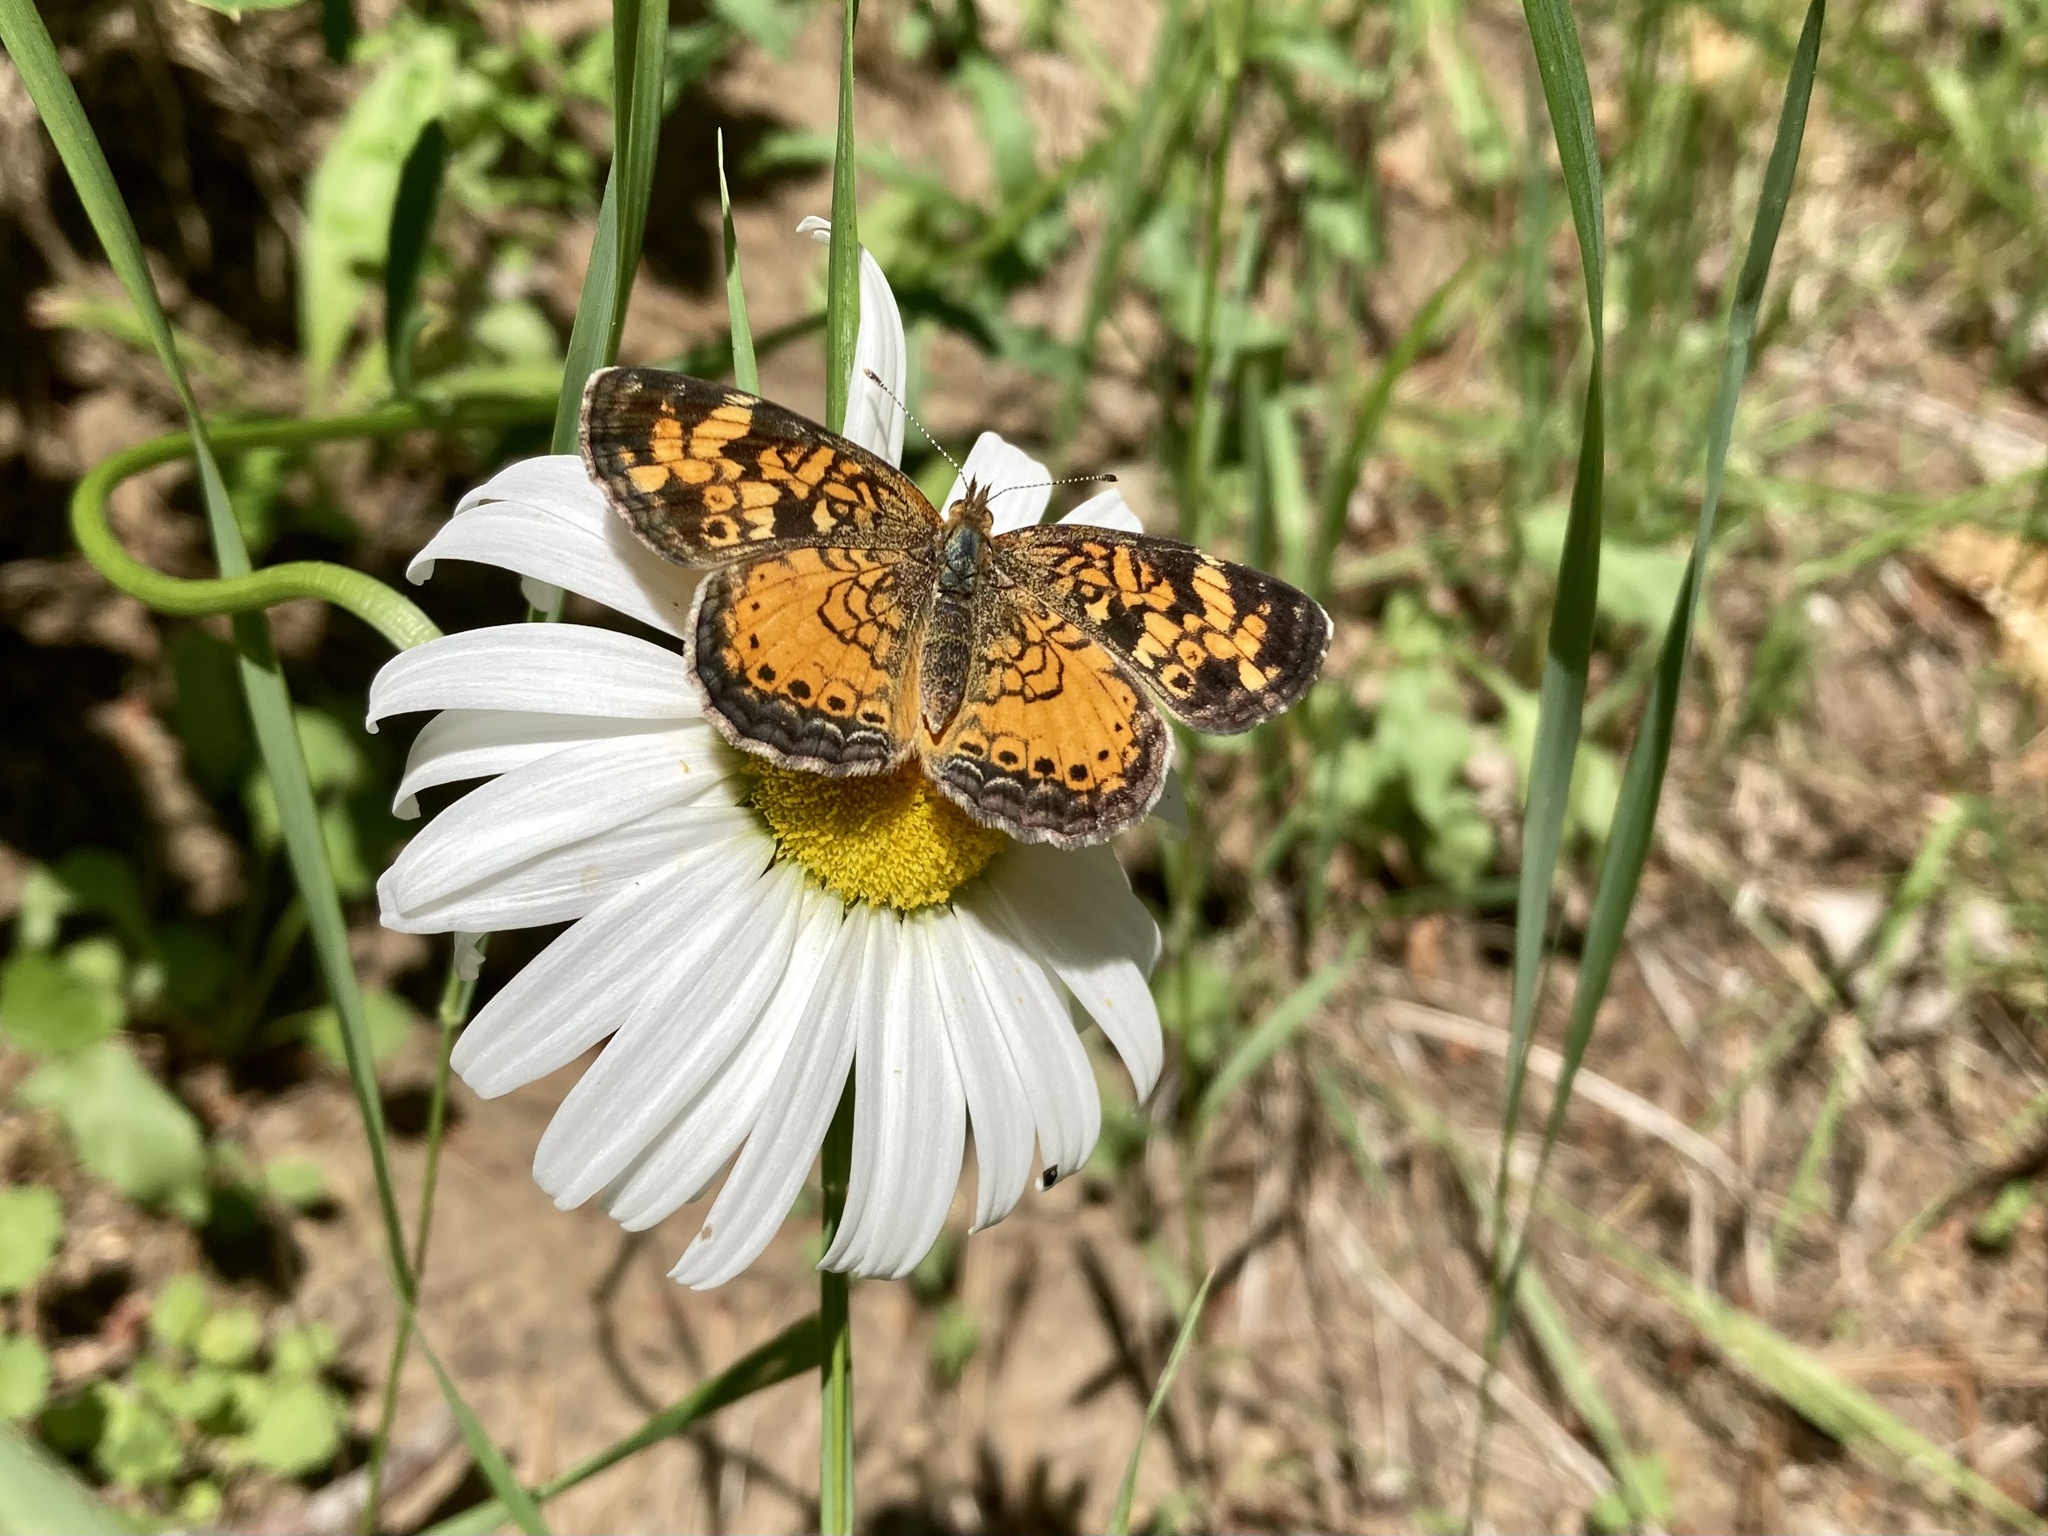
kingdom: Animalia
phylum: Arthropoda
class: Insecta
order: Lepidoptera
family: Nymphalidae
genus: Phyciodes
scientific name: Phyciodes tharos
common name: Pearl crescent
